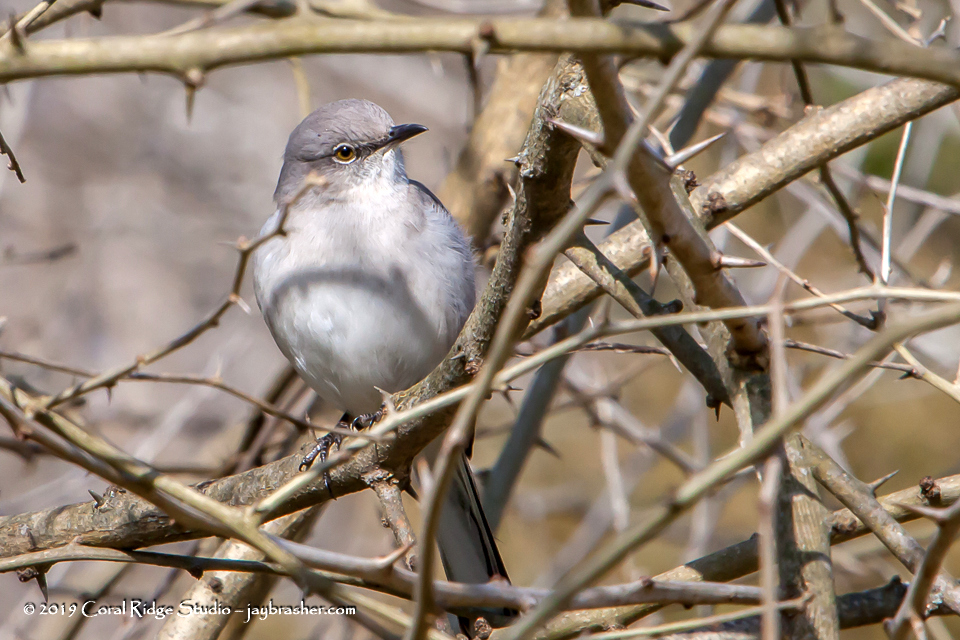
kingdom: Animalia
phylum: Chordata
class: Aves
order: Passeriformes
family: Mimidae
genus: Mimus
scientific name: Mimus polyglottos
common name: Northern mockingbird
